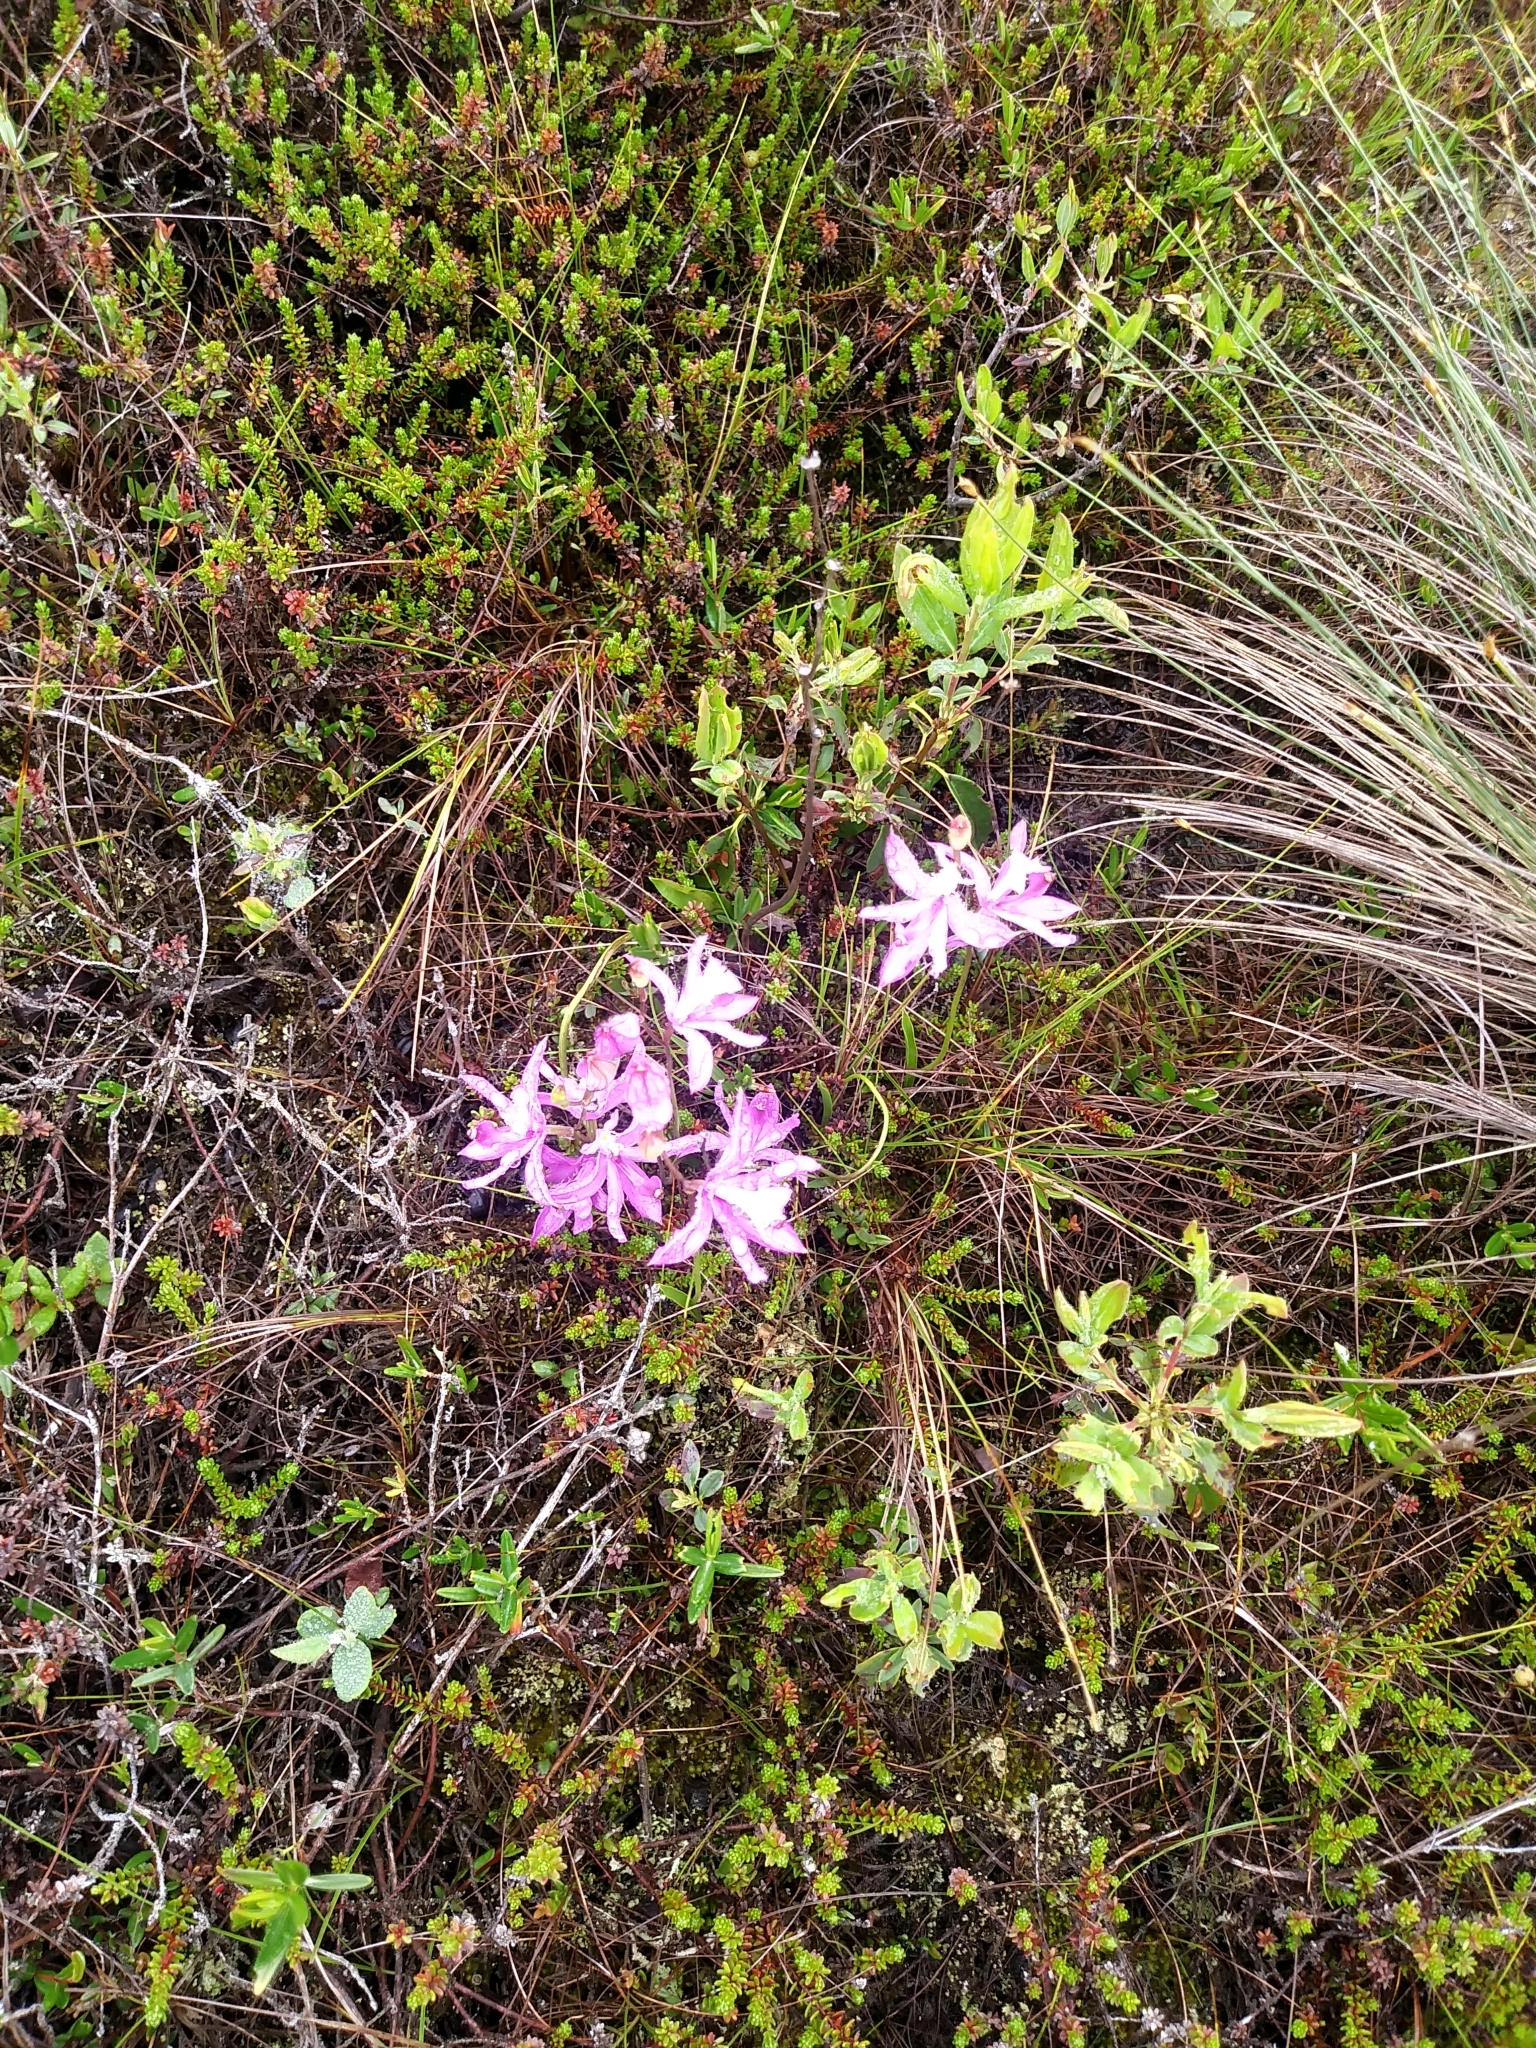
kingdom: Plantae
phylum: Tracheophyta
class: Liliopsida
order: Asparagales
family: Orchidaceae
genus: Calopogon
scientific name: Calopogon tuberosus
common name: Grass-pink
